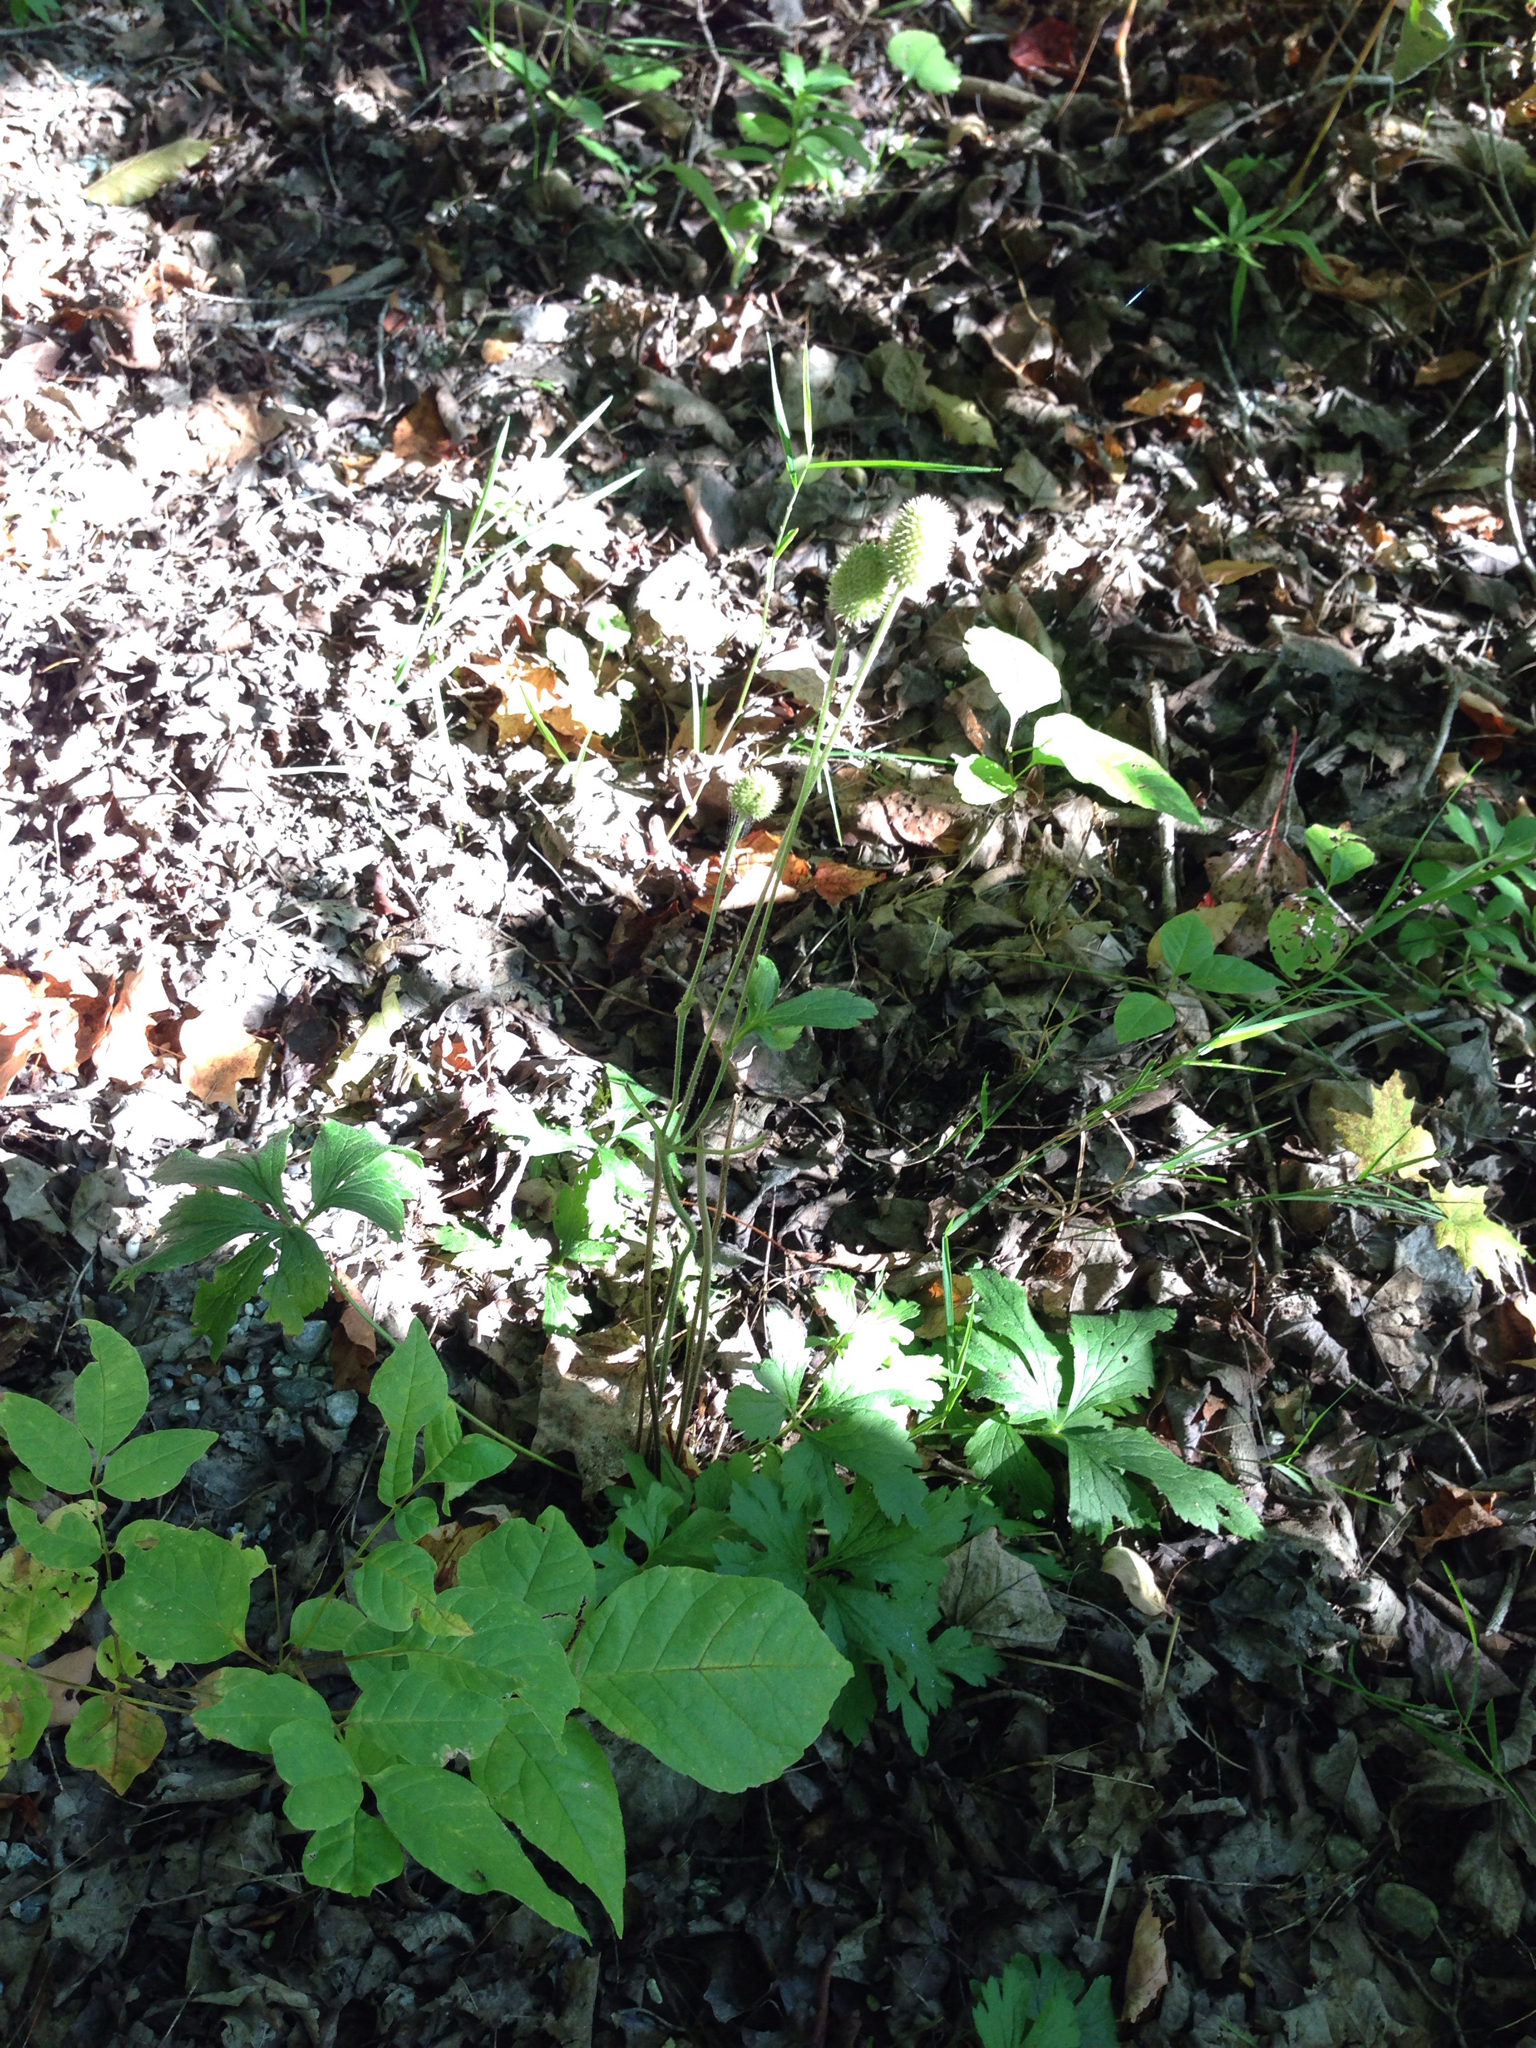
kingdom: Plantae
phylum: Tracheophyta
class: Magnoliopsida
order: Ranunculales
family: Ranunculaceae
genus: Anemone
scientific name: Anemone virginiana
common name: Tall anemone
